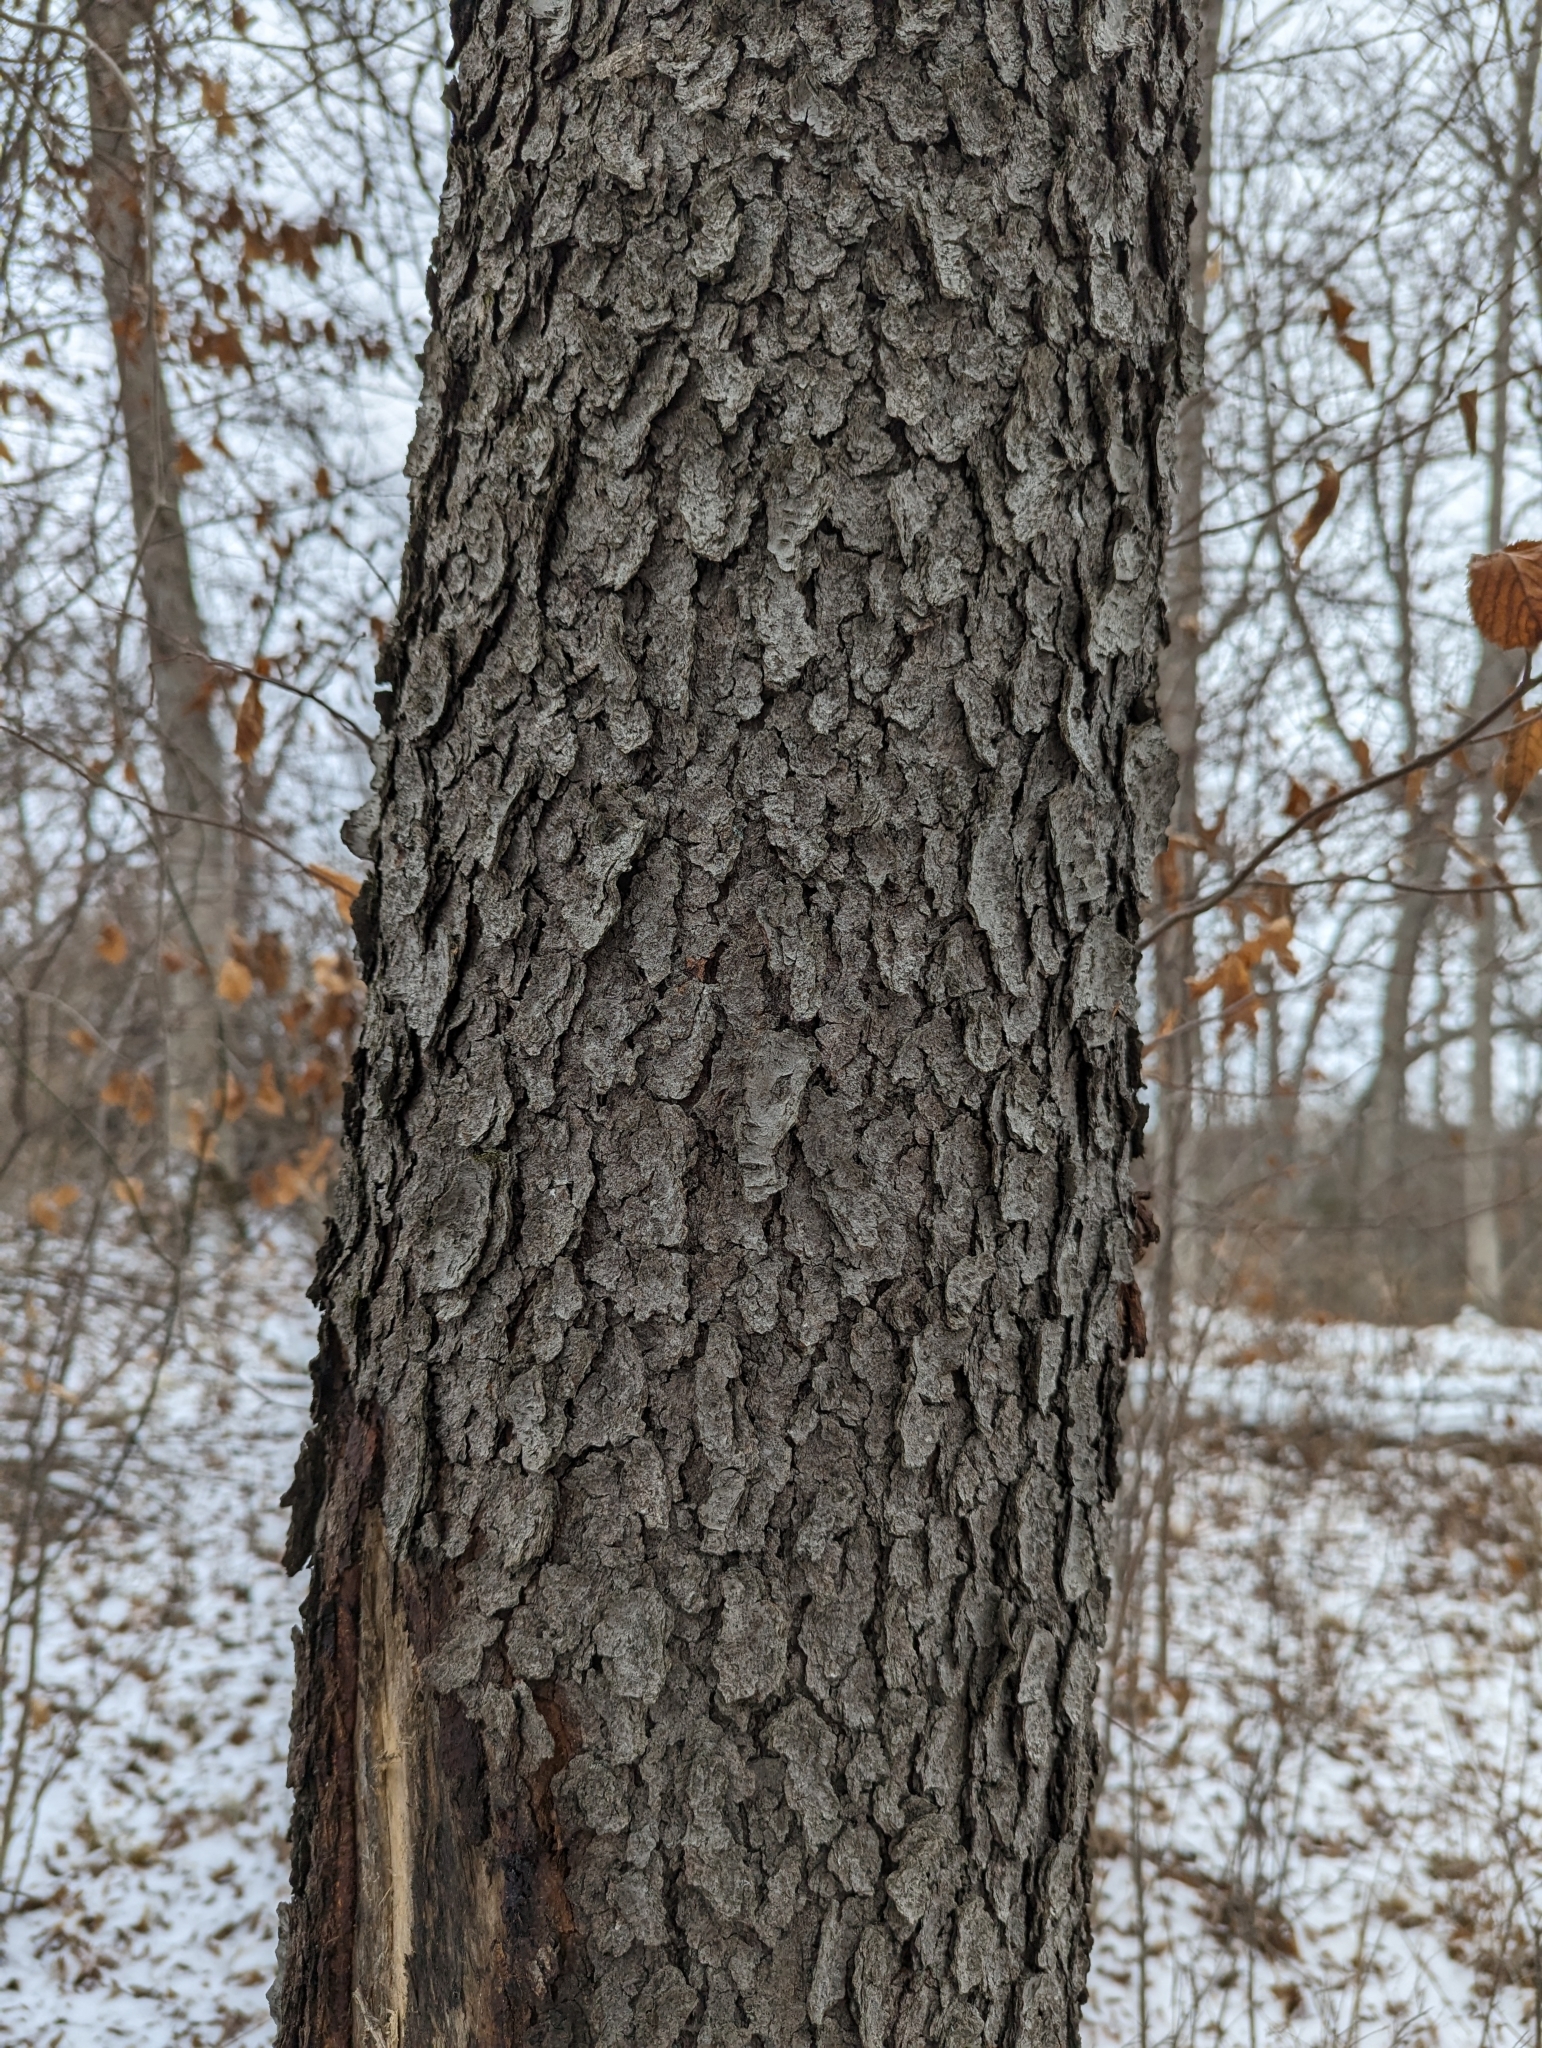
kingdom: Plantae
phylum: Tracheophyta
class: Magnoliopsida
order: Rosales
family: Rosaceae
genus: Prunus
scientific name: Prunus serotina
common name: Black cherry
